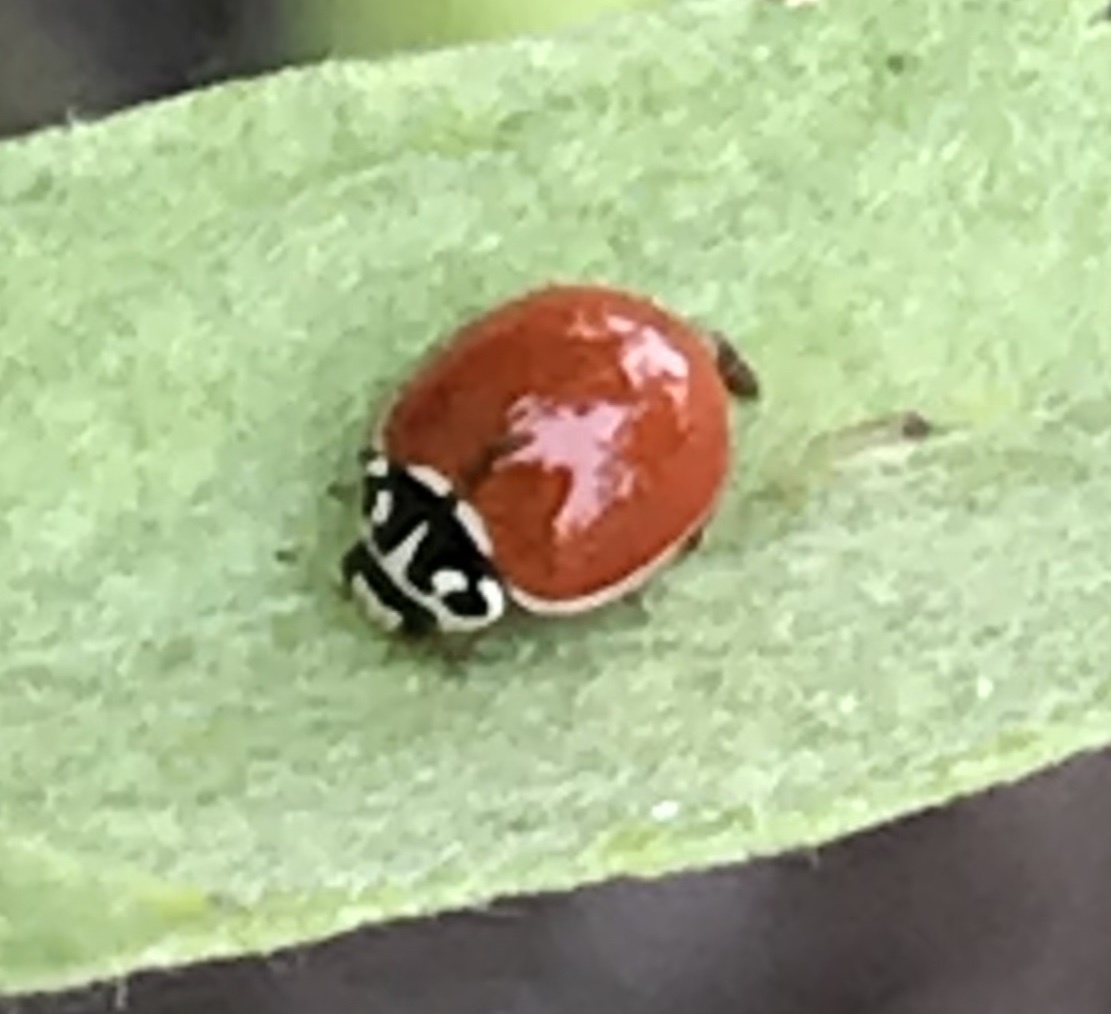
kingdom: Animalia
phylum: Arthropoda
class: Insecta
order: Coleoptera
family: Coccinellidae
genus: Cycloneda
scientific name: Cycloneda polita
